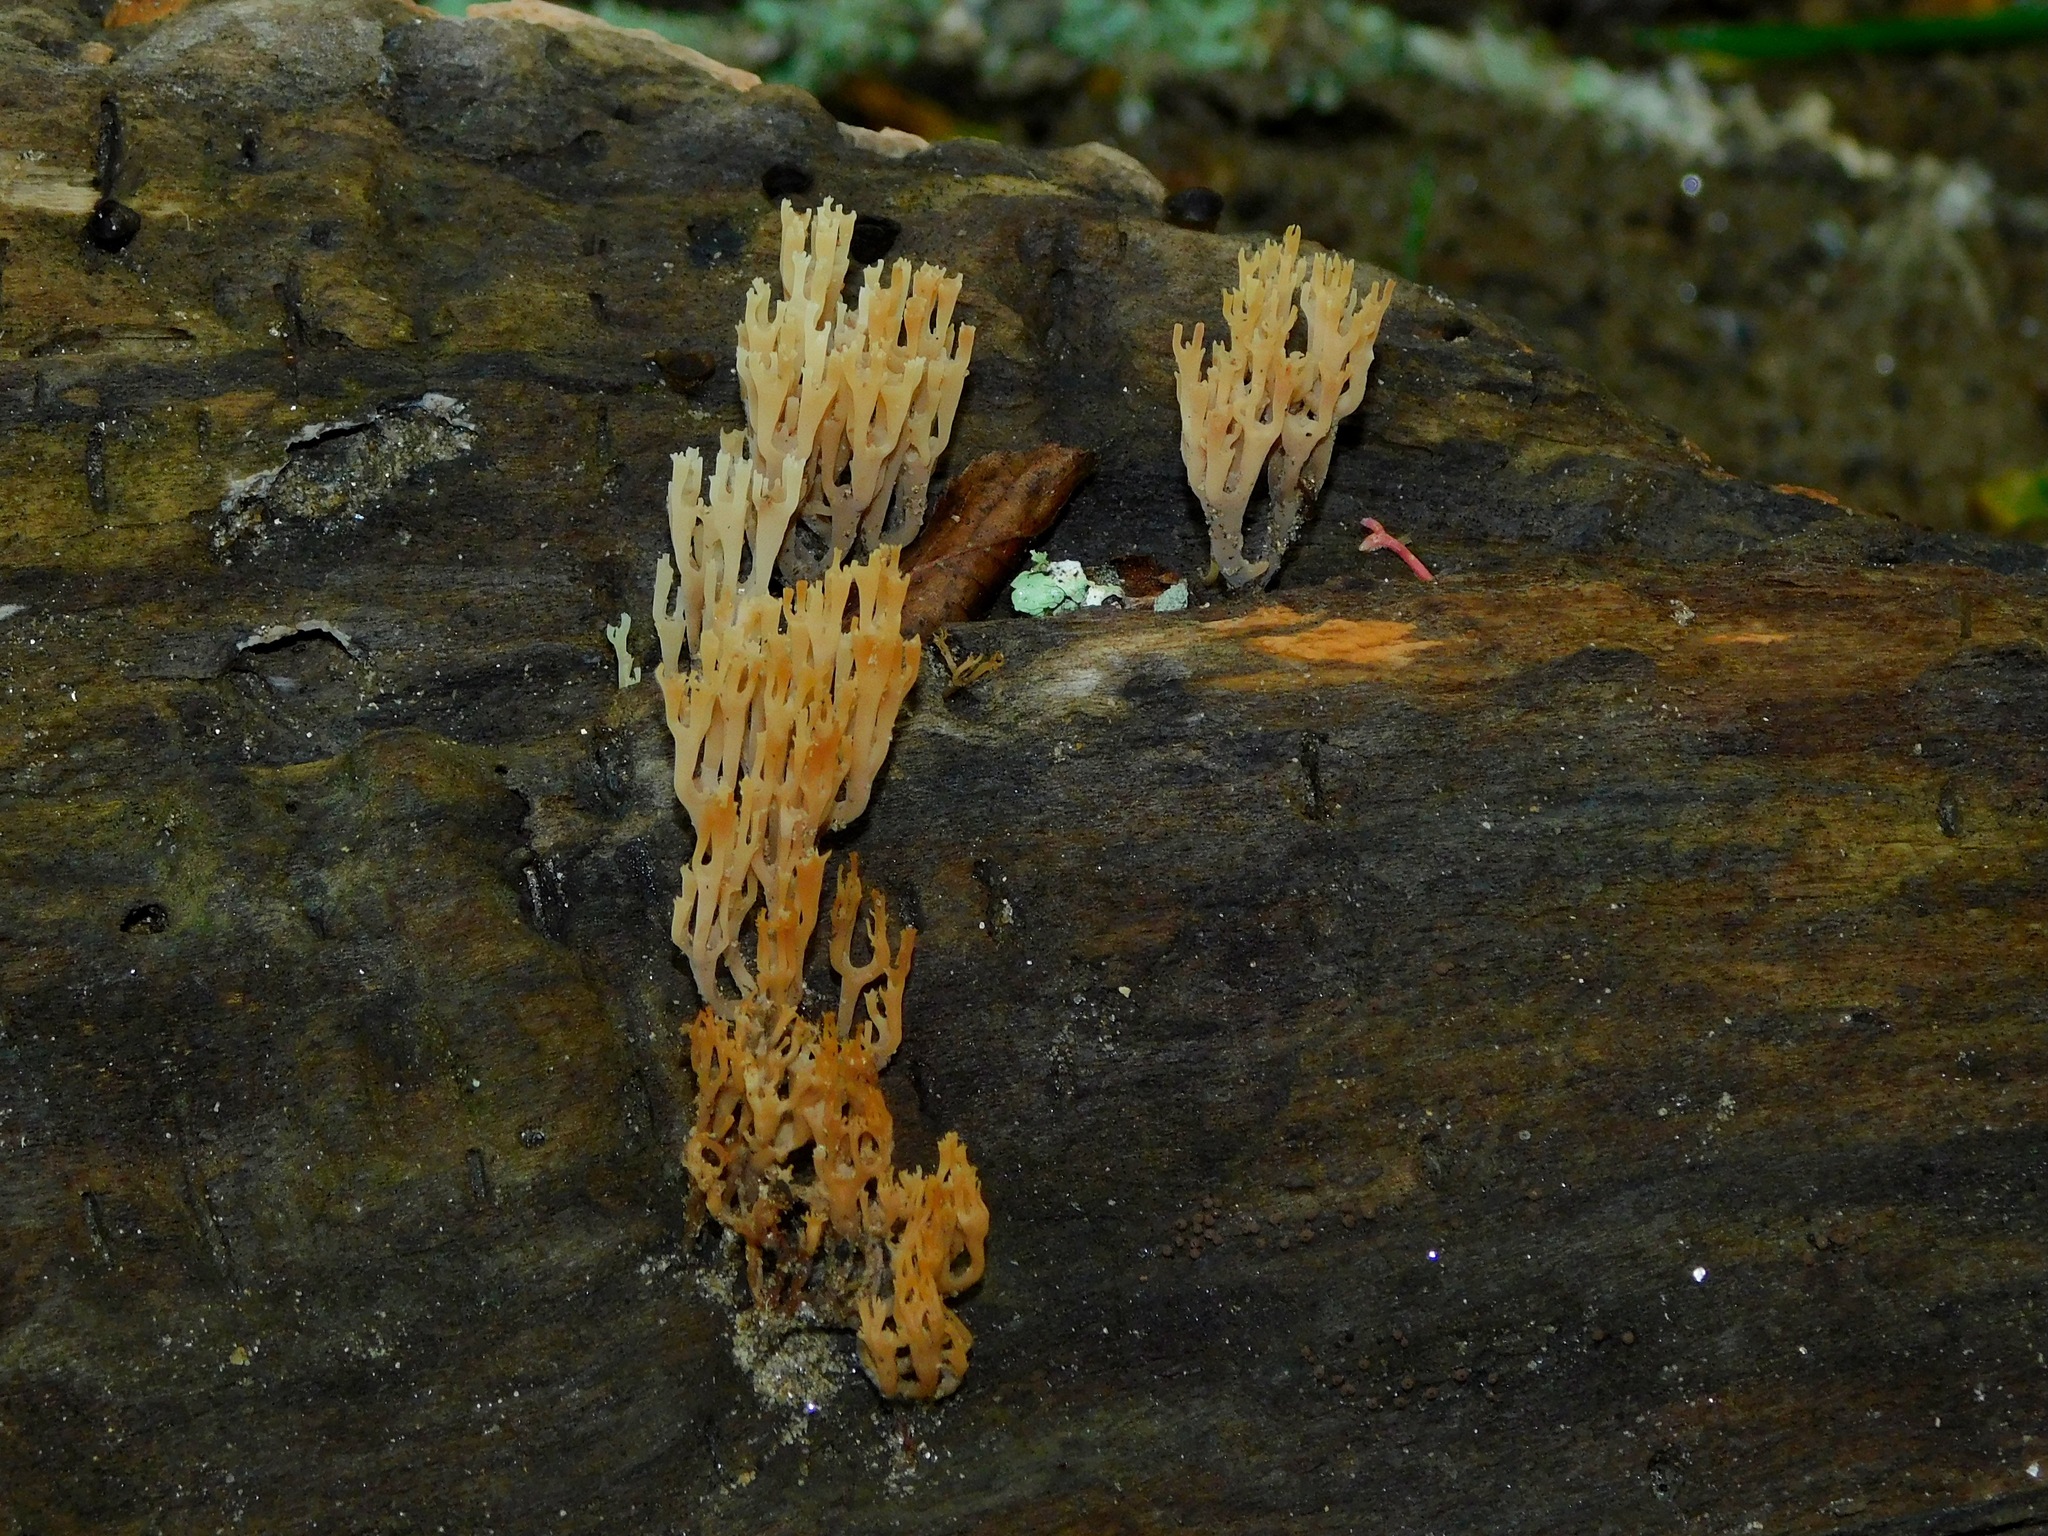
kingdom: Fungi
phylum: Basidiomycota
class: Agaricomycetes
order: Russulales
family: Auriscalpiaceae
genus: Artomyces
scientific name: Artomyces pyxidatus
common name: Crown-tipped coral fungus
